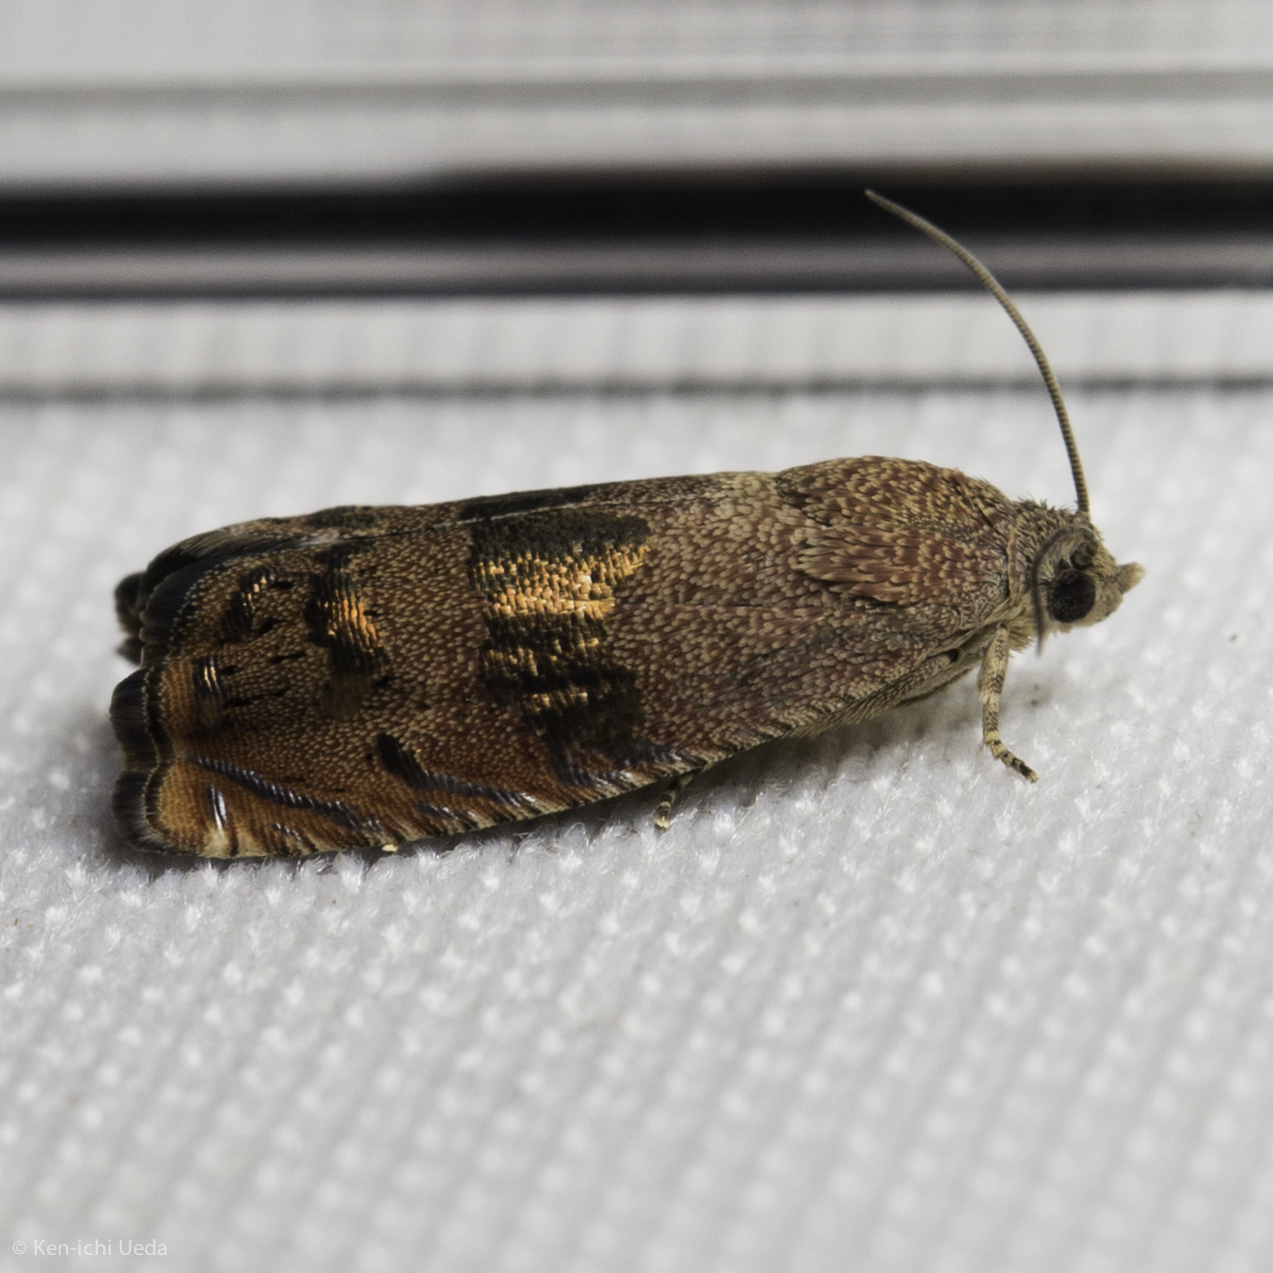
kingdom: Animalia
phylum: Arthropoda
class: Insecta
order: Lepidoptera
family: Tortricidae
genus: Cydia
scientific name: Cydia latiferreana
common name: Filbertworm moth
